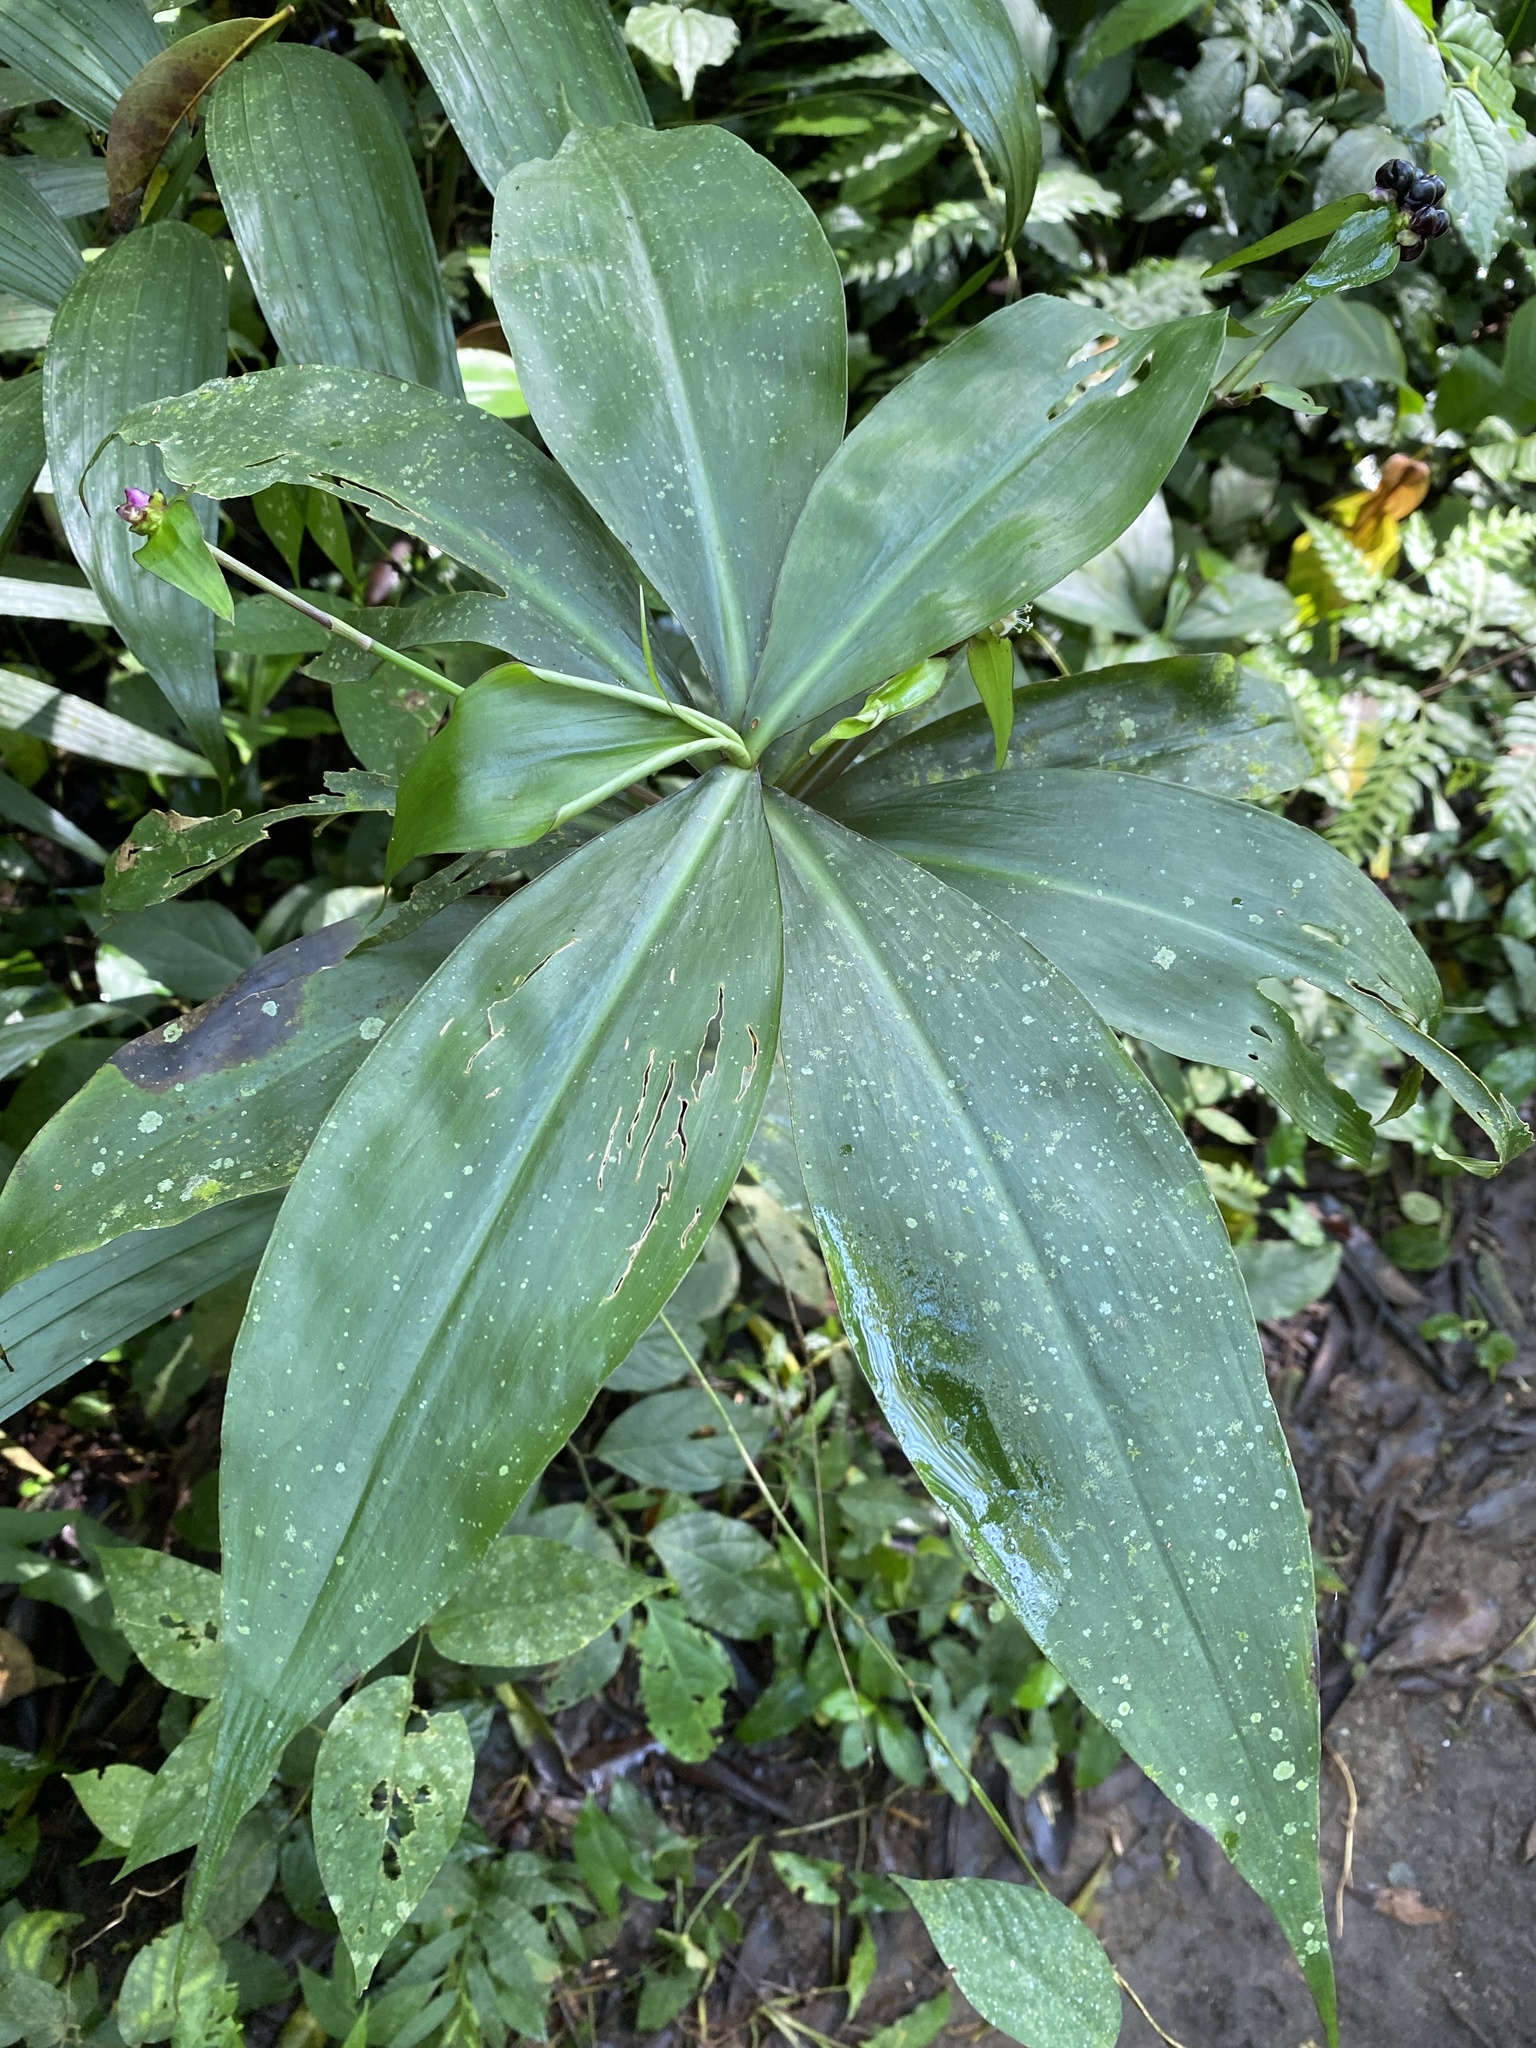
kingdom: Plantae
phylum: Tracheophyta
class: Liliopsida
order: Commelinales
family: Commelinaceae
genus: Tradescantia
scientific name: Tradescantia zanonia
